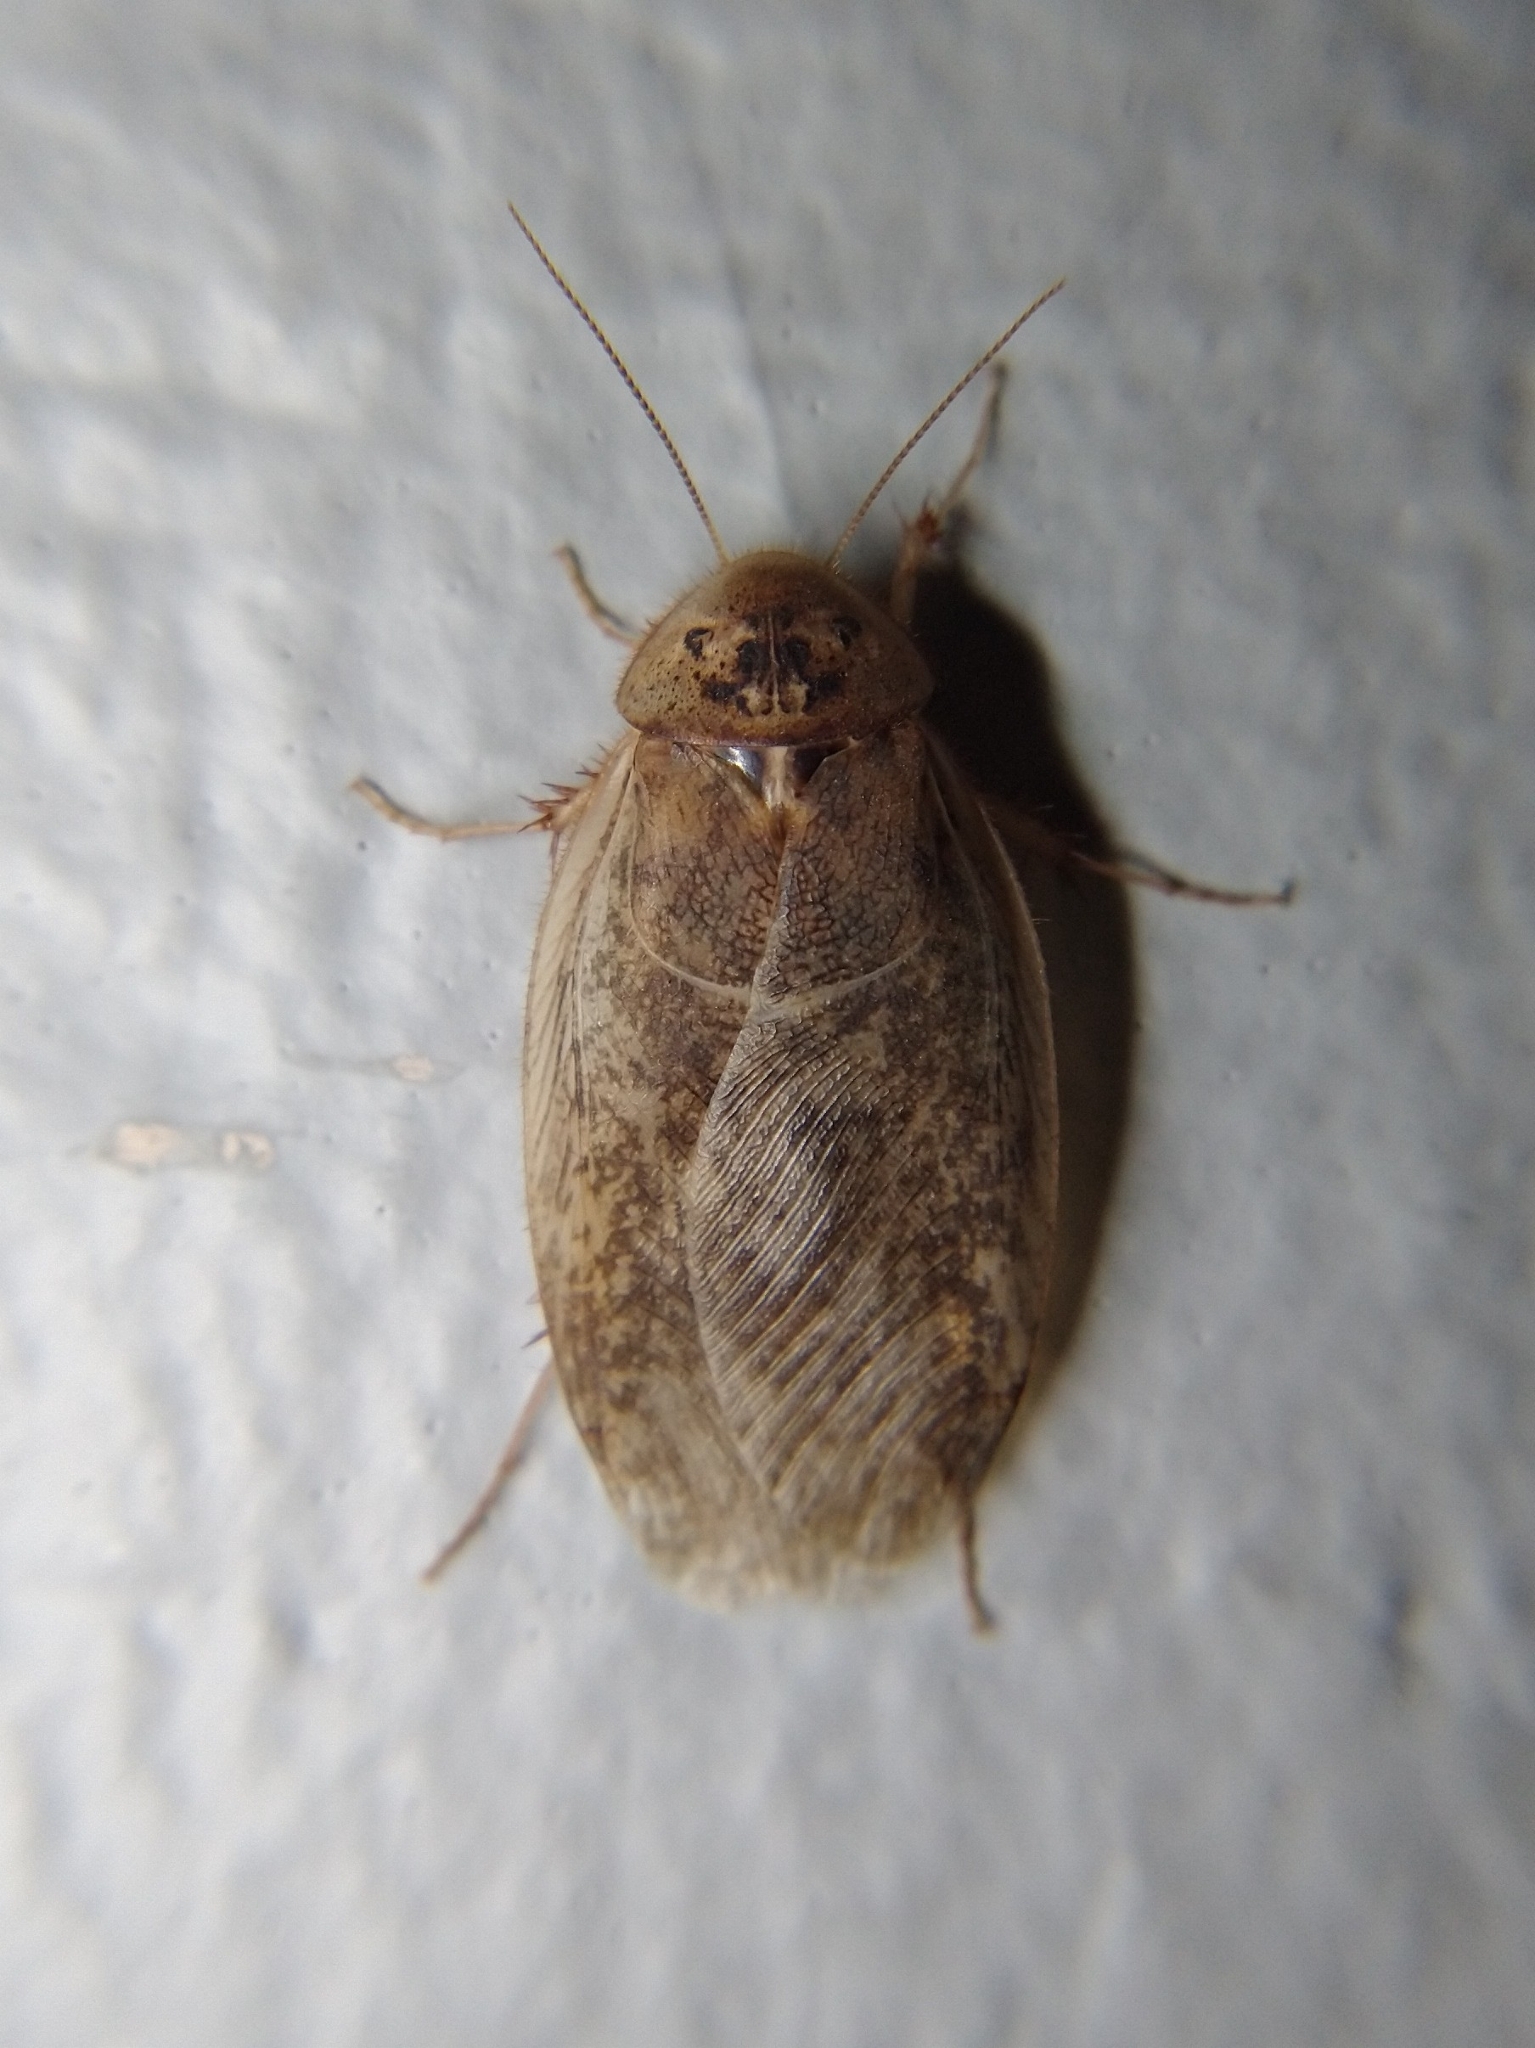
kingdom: Animalia
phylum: Arthropoda
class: Insecta
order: Blattodea
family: Corydiidae
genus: Arenivaga
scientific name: Arenivaga
